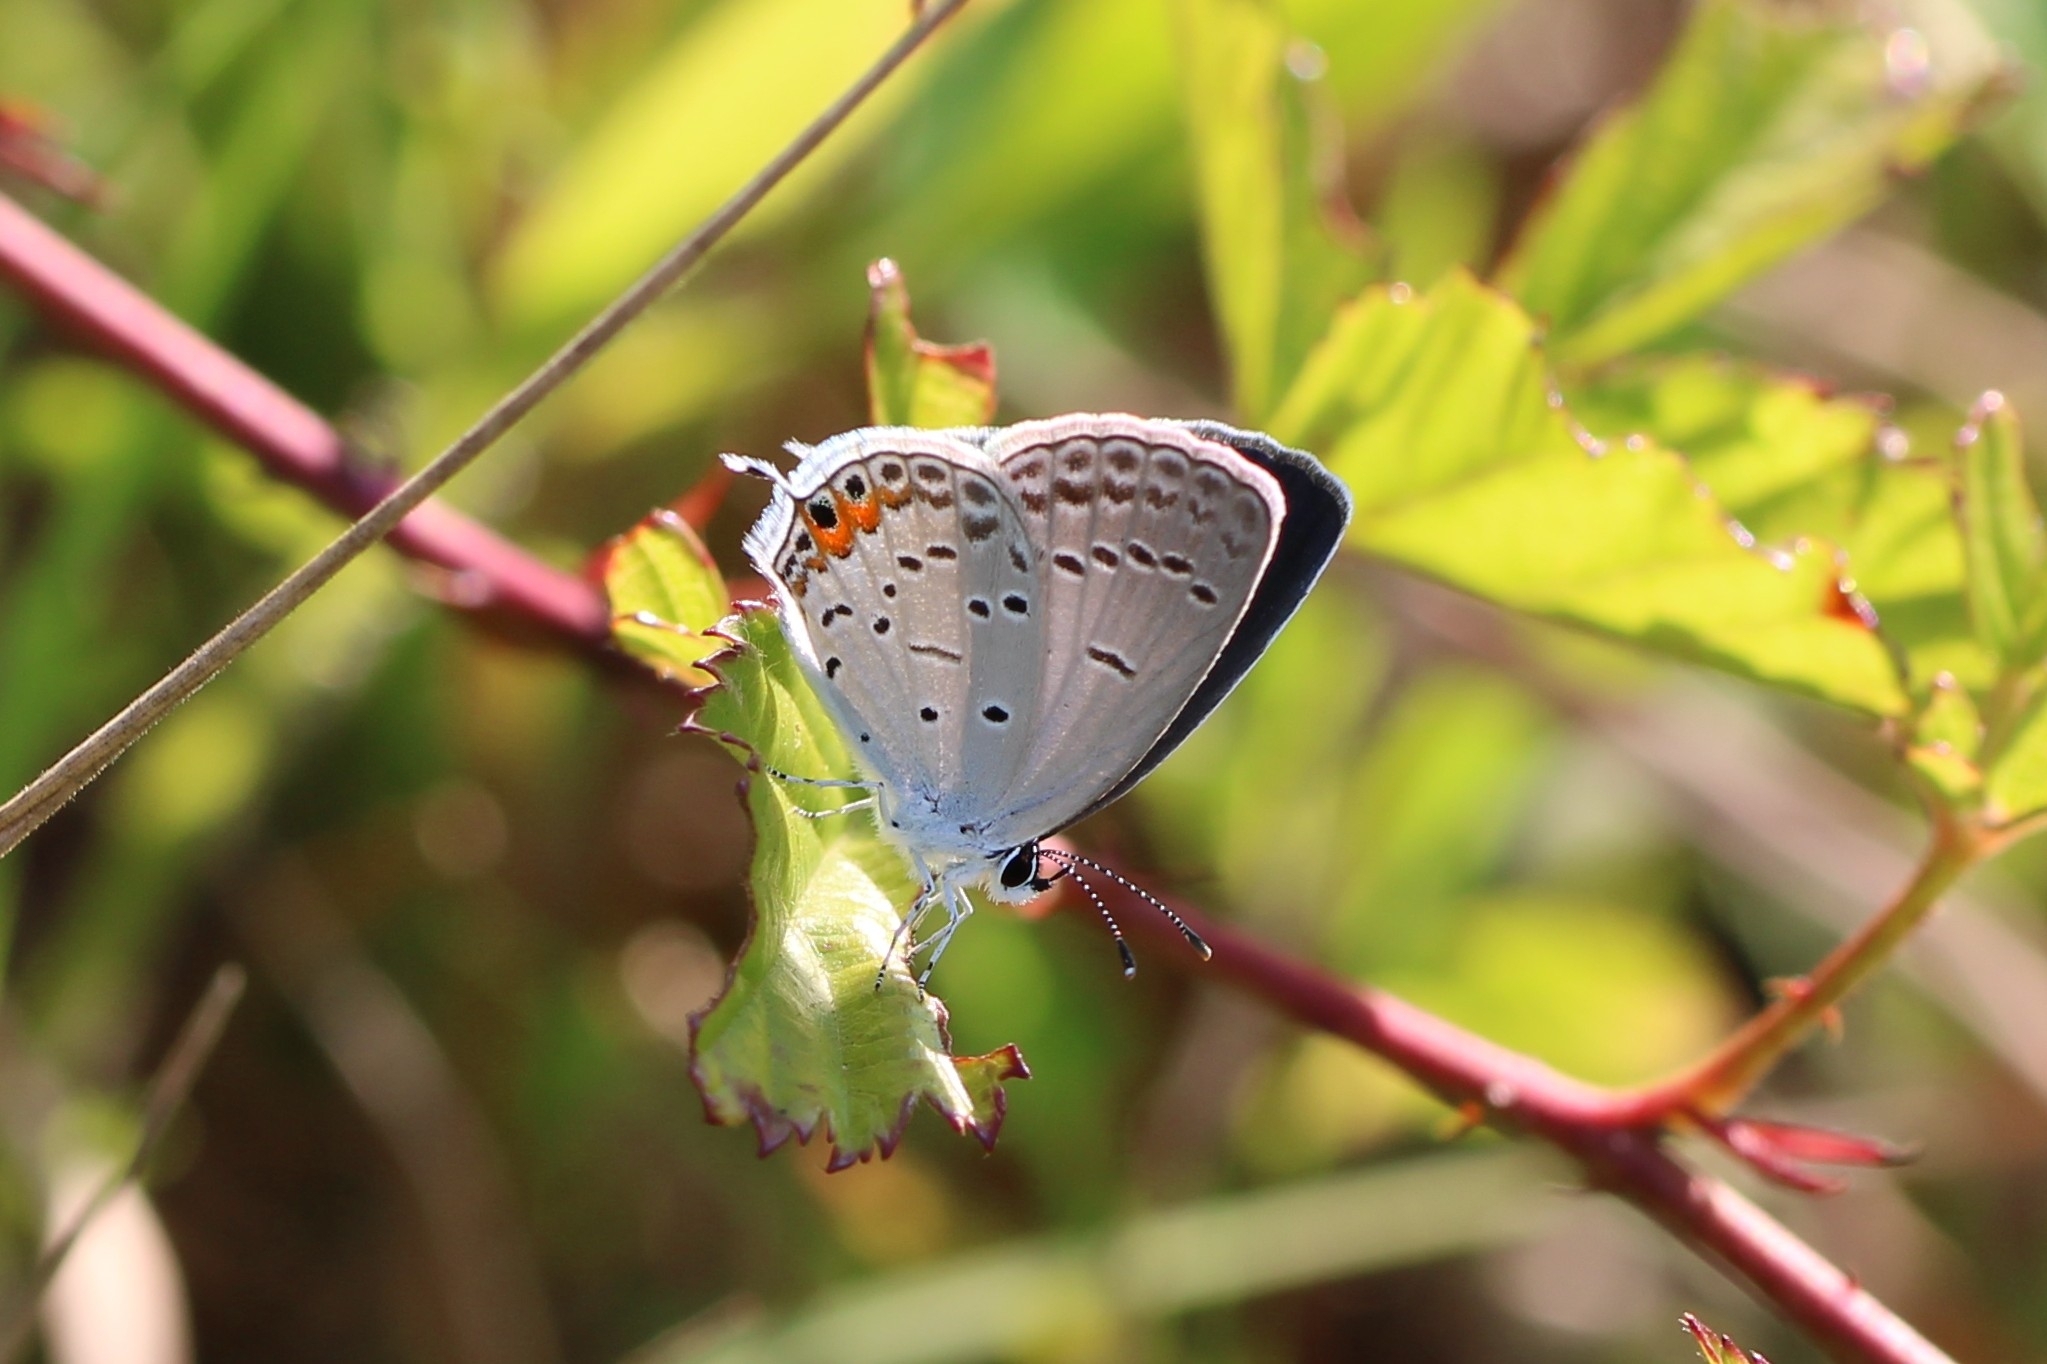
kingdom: Animalia
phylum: Arthropoda
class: Insecta
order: Lepidoptera
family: Lycaenidae
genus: Elkalyce
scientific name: Elkalyce comyntas
